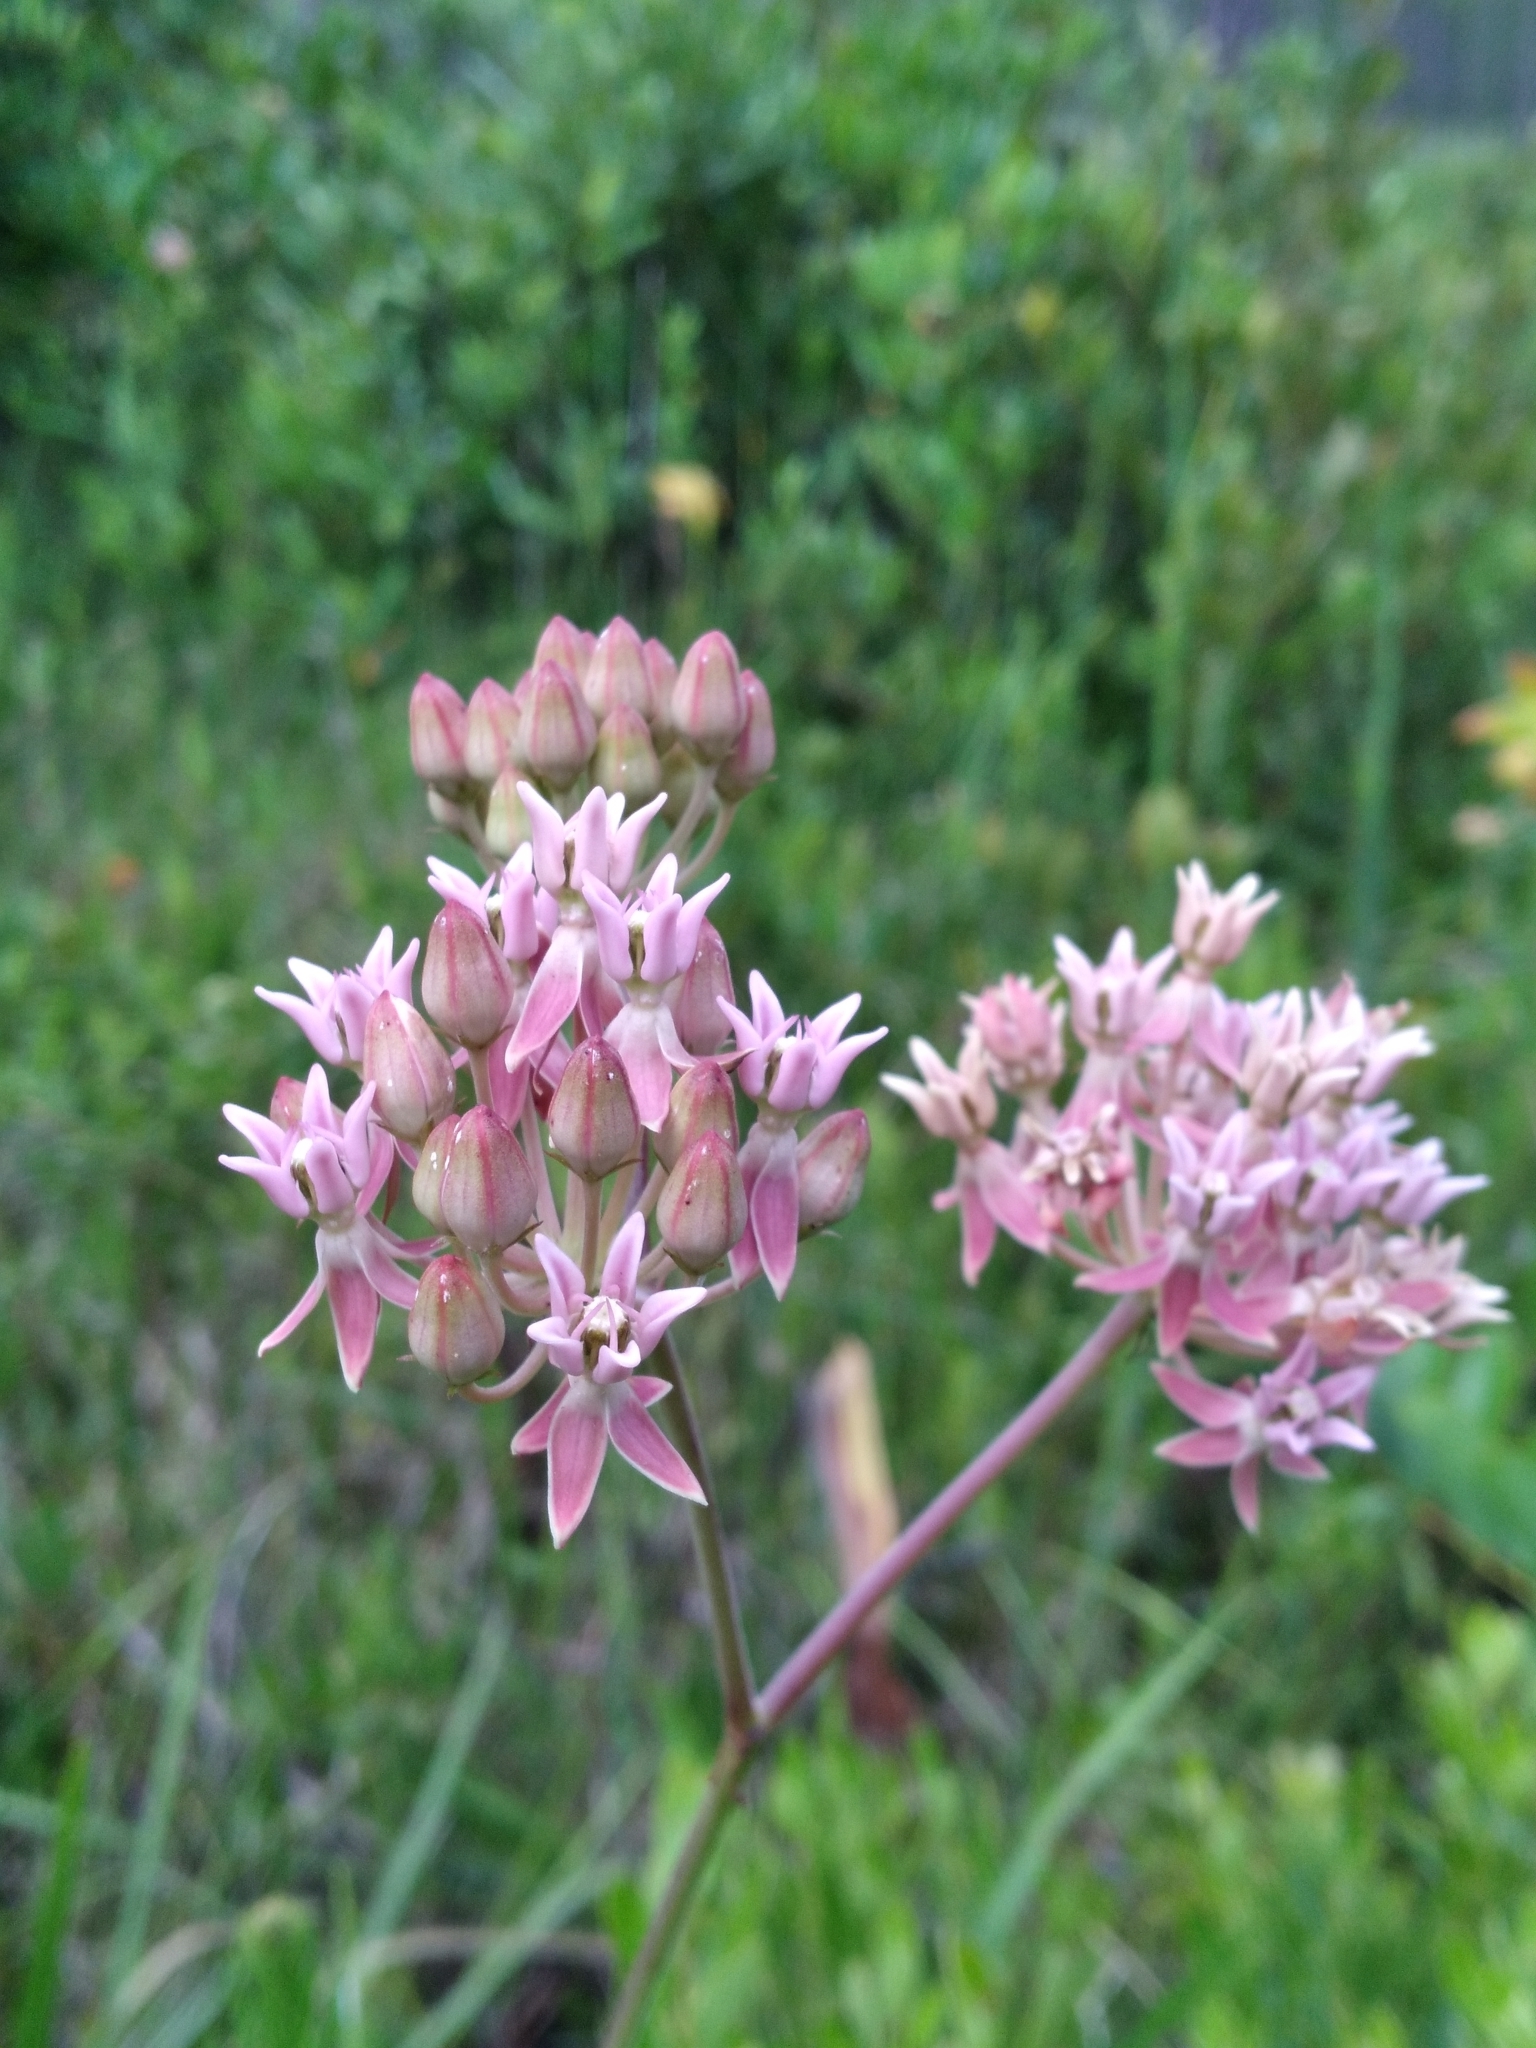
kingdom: Plantae
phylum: Tracheophyta
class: Magnoliopsida
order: Gentianales
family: Apocynaceae
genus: Asclepias
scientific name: Asclepias rubra
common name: Red milkweed
